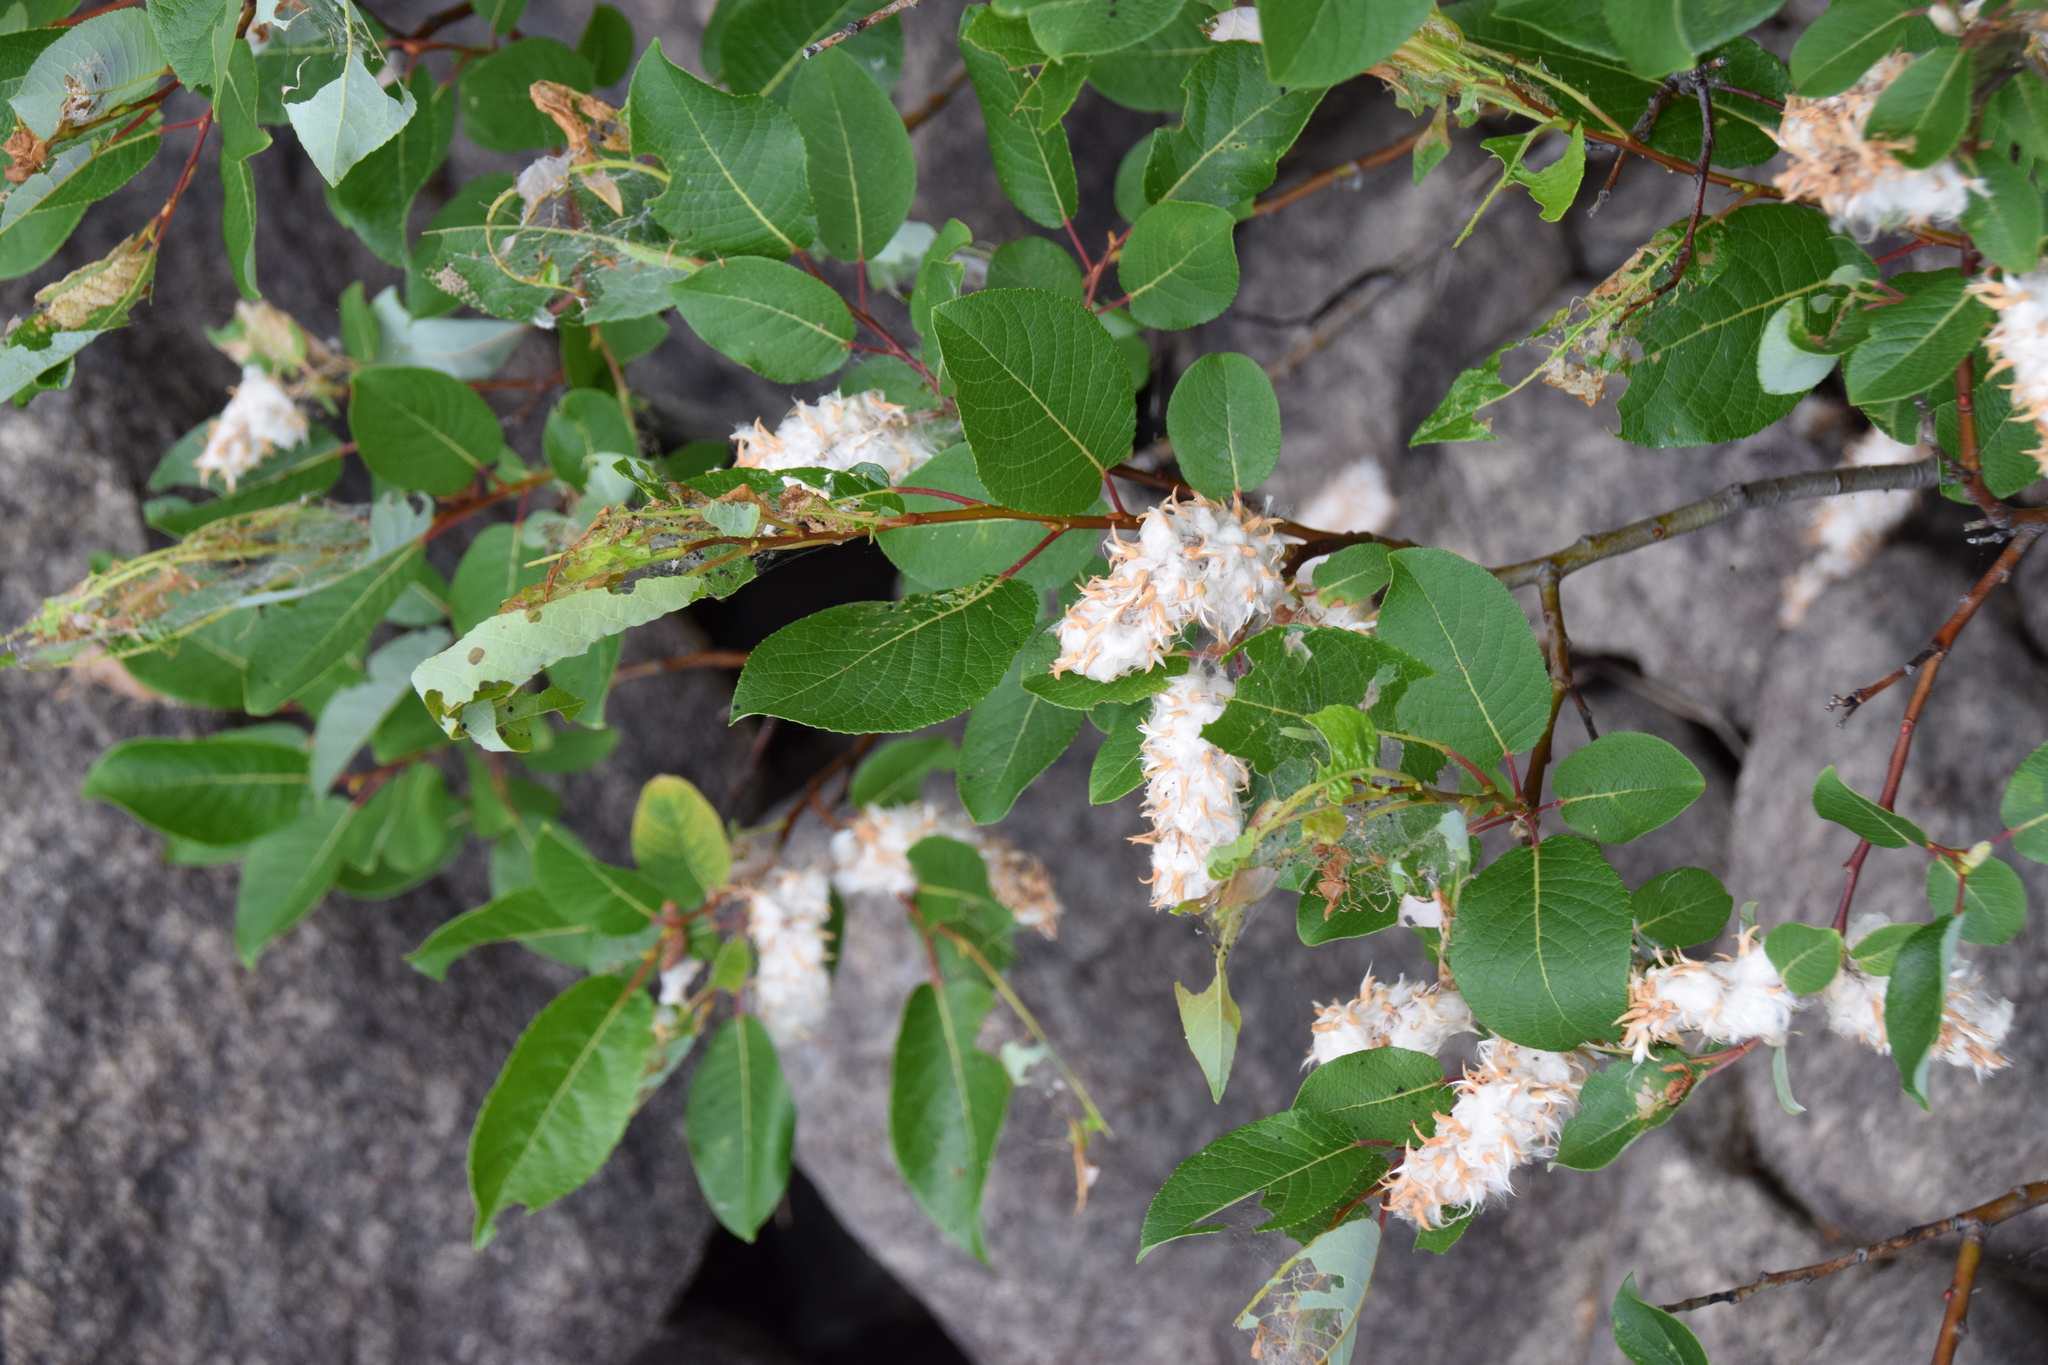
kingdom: Plantae
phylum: Tracheophyta
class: Magnoliopsida
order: Malpighiales
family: Salicaceae
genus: Salix
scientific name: Salix pyrifolia
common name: Balsam willow
